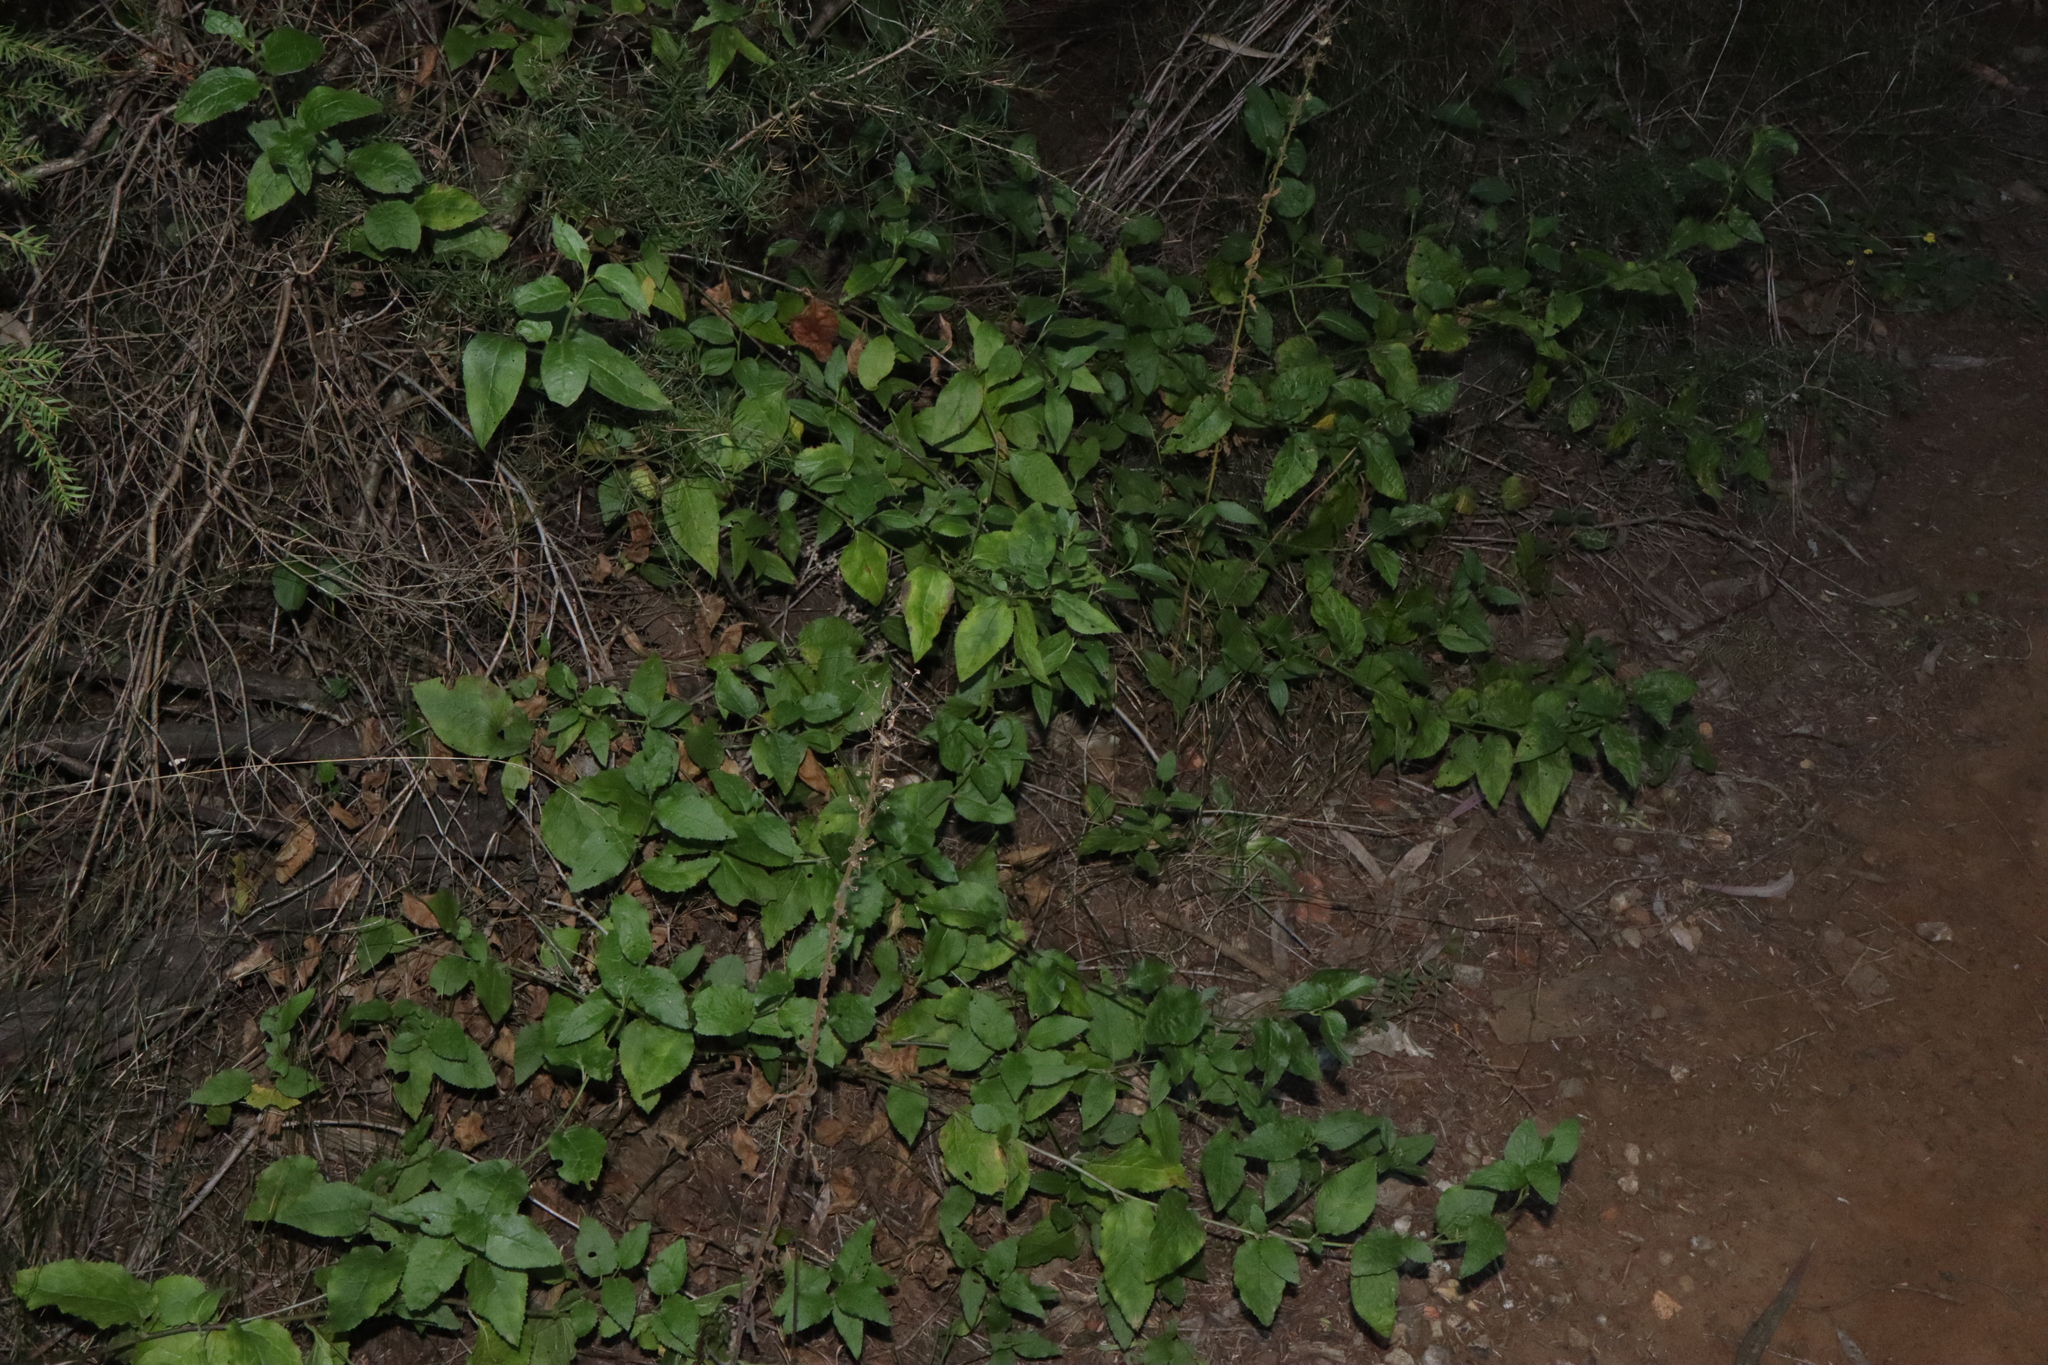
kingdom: Plantae
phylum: Tracheophyta
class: Magnoliopsida
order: Asterales
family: Goodeniaceae
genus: Goodenia
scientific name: Goodenia ovata
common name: Hop goodenia
